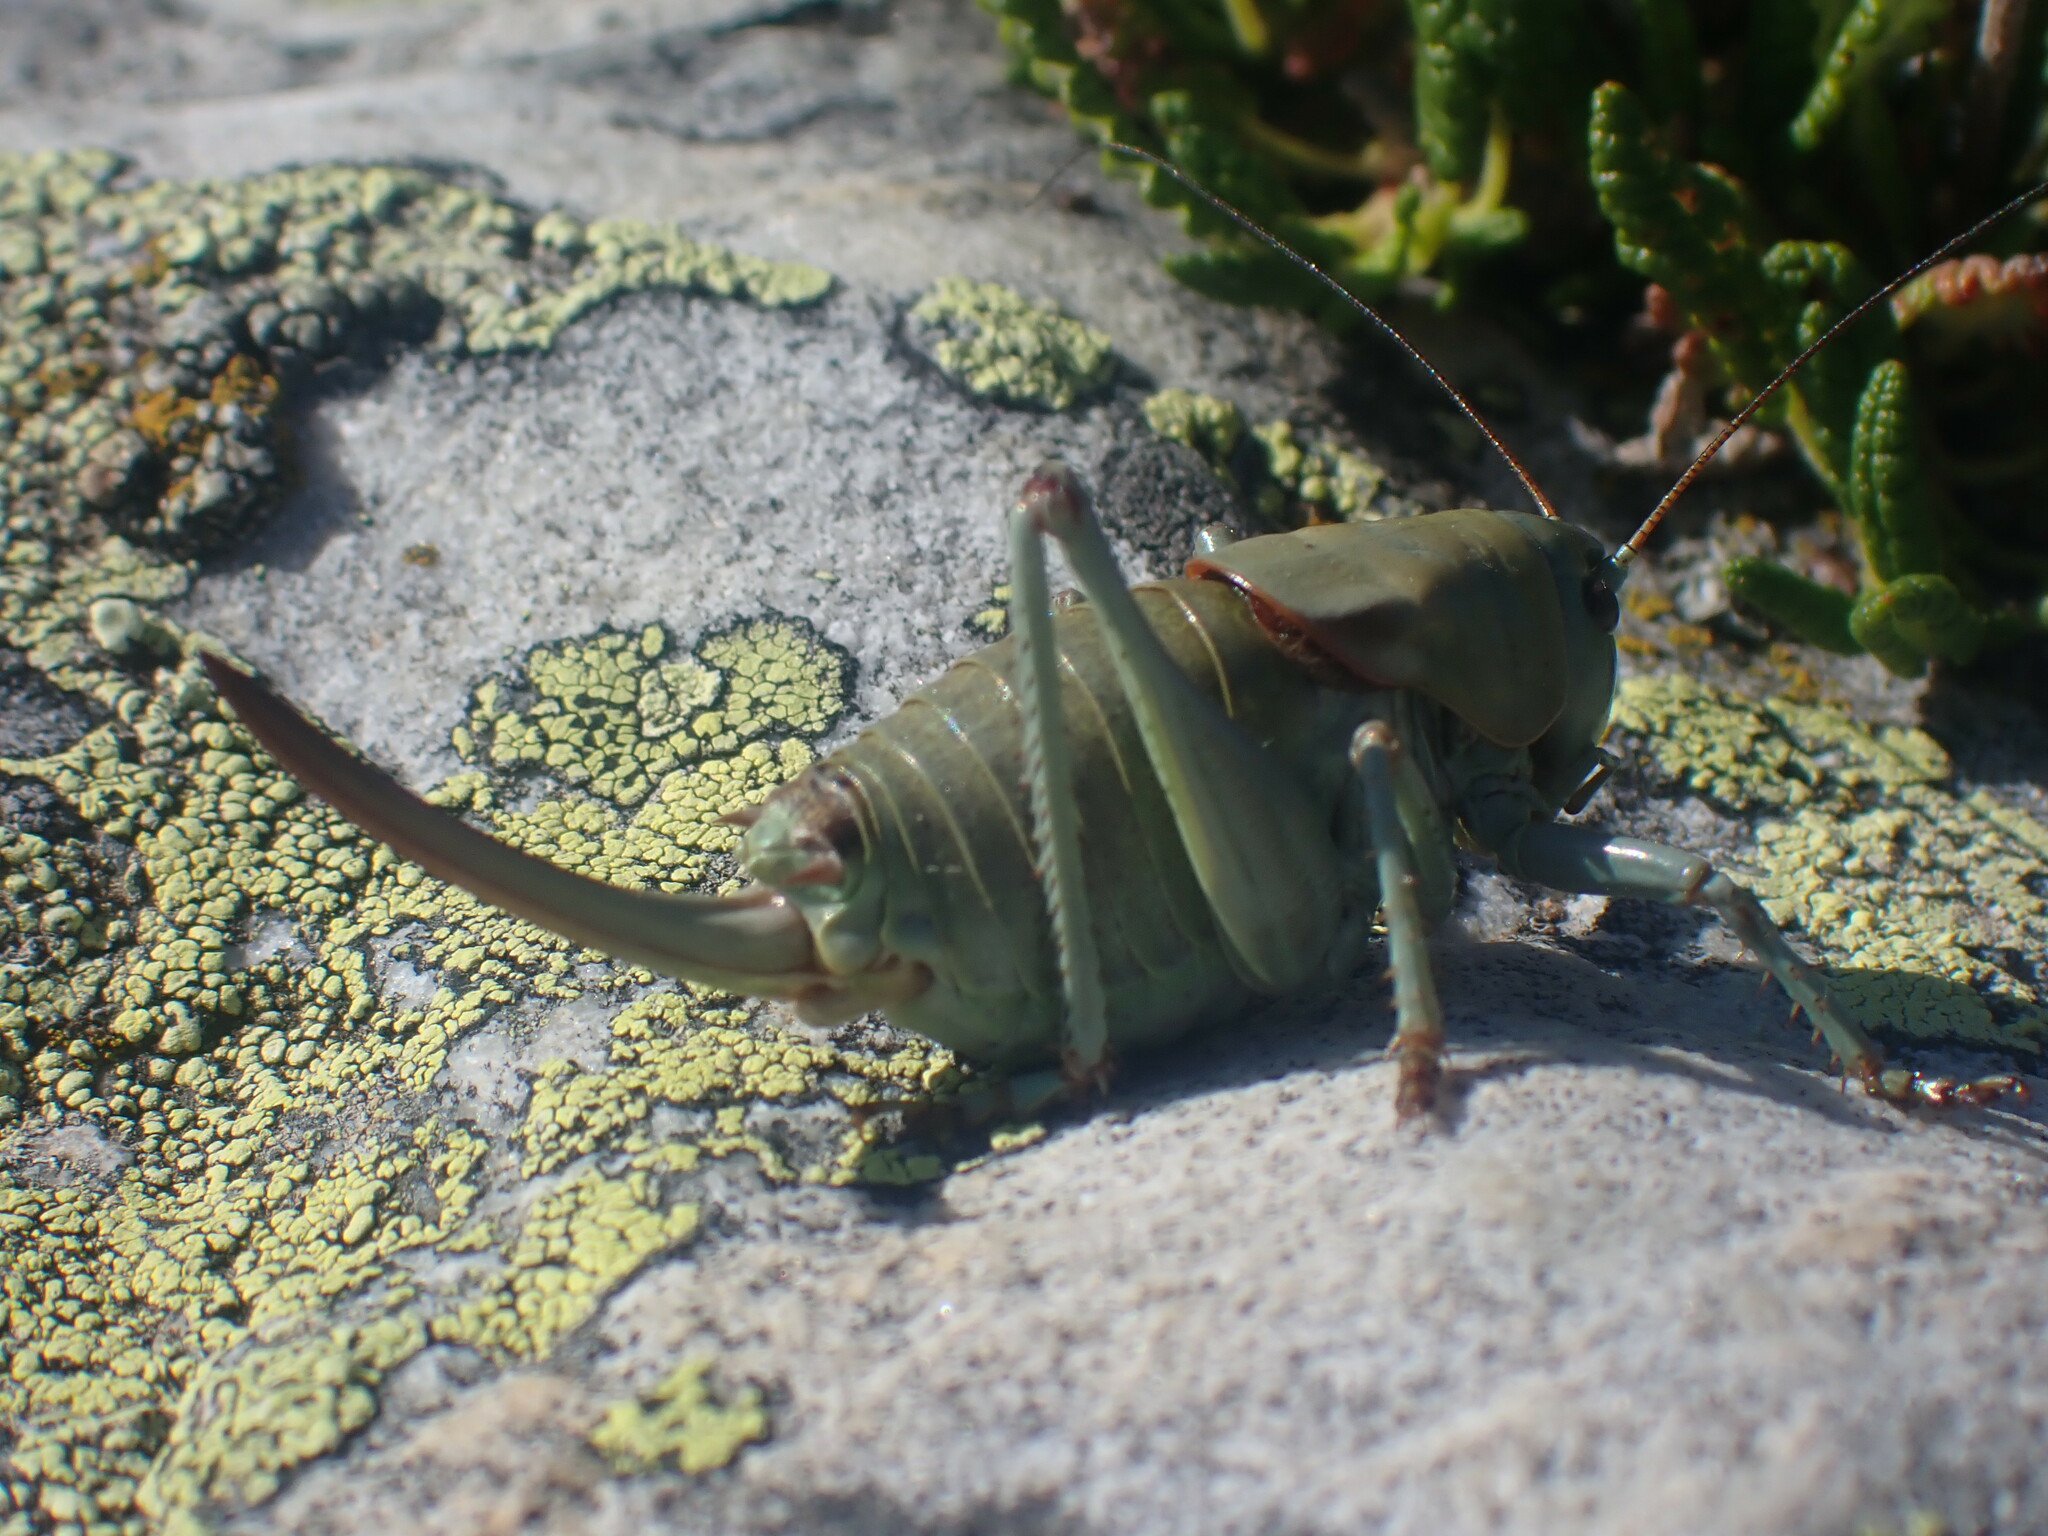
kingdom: Animalia
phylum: Arthropoda
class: Insecta
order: Orthoptera
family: Tettigoniidae
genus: Anabrus
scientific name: Anabrus simplex
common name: Mormon cricket
